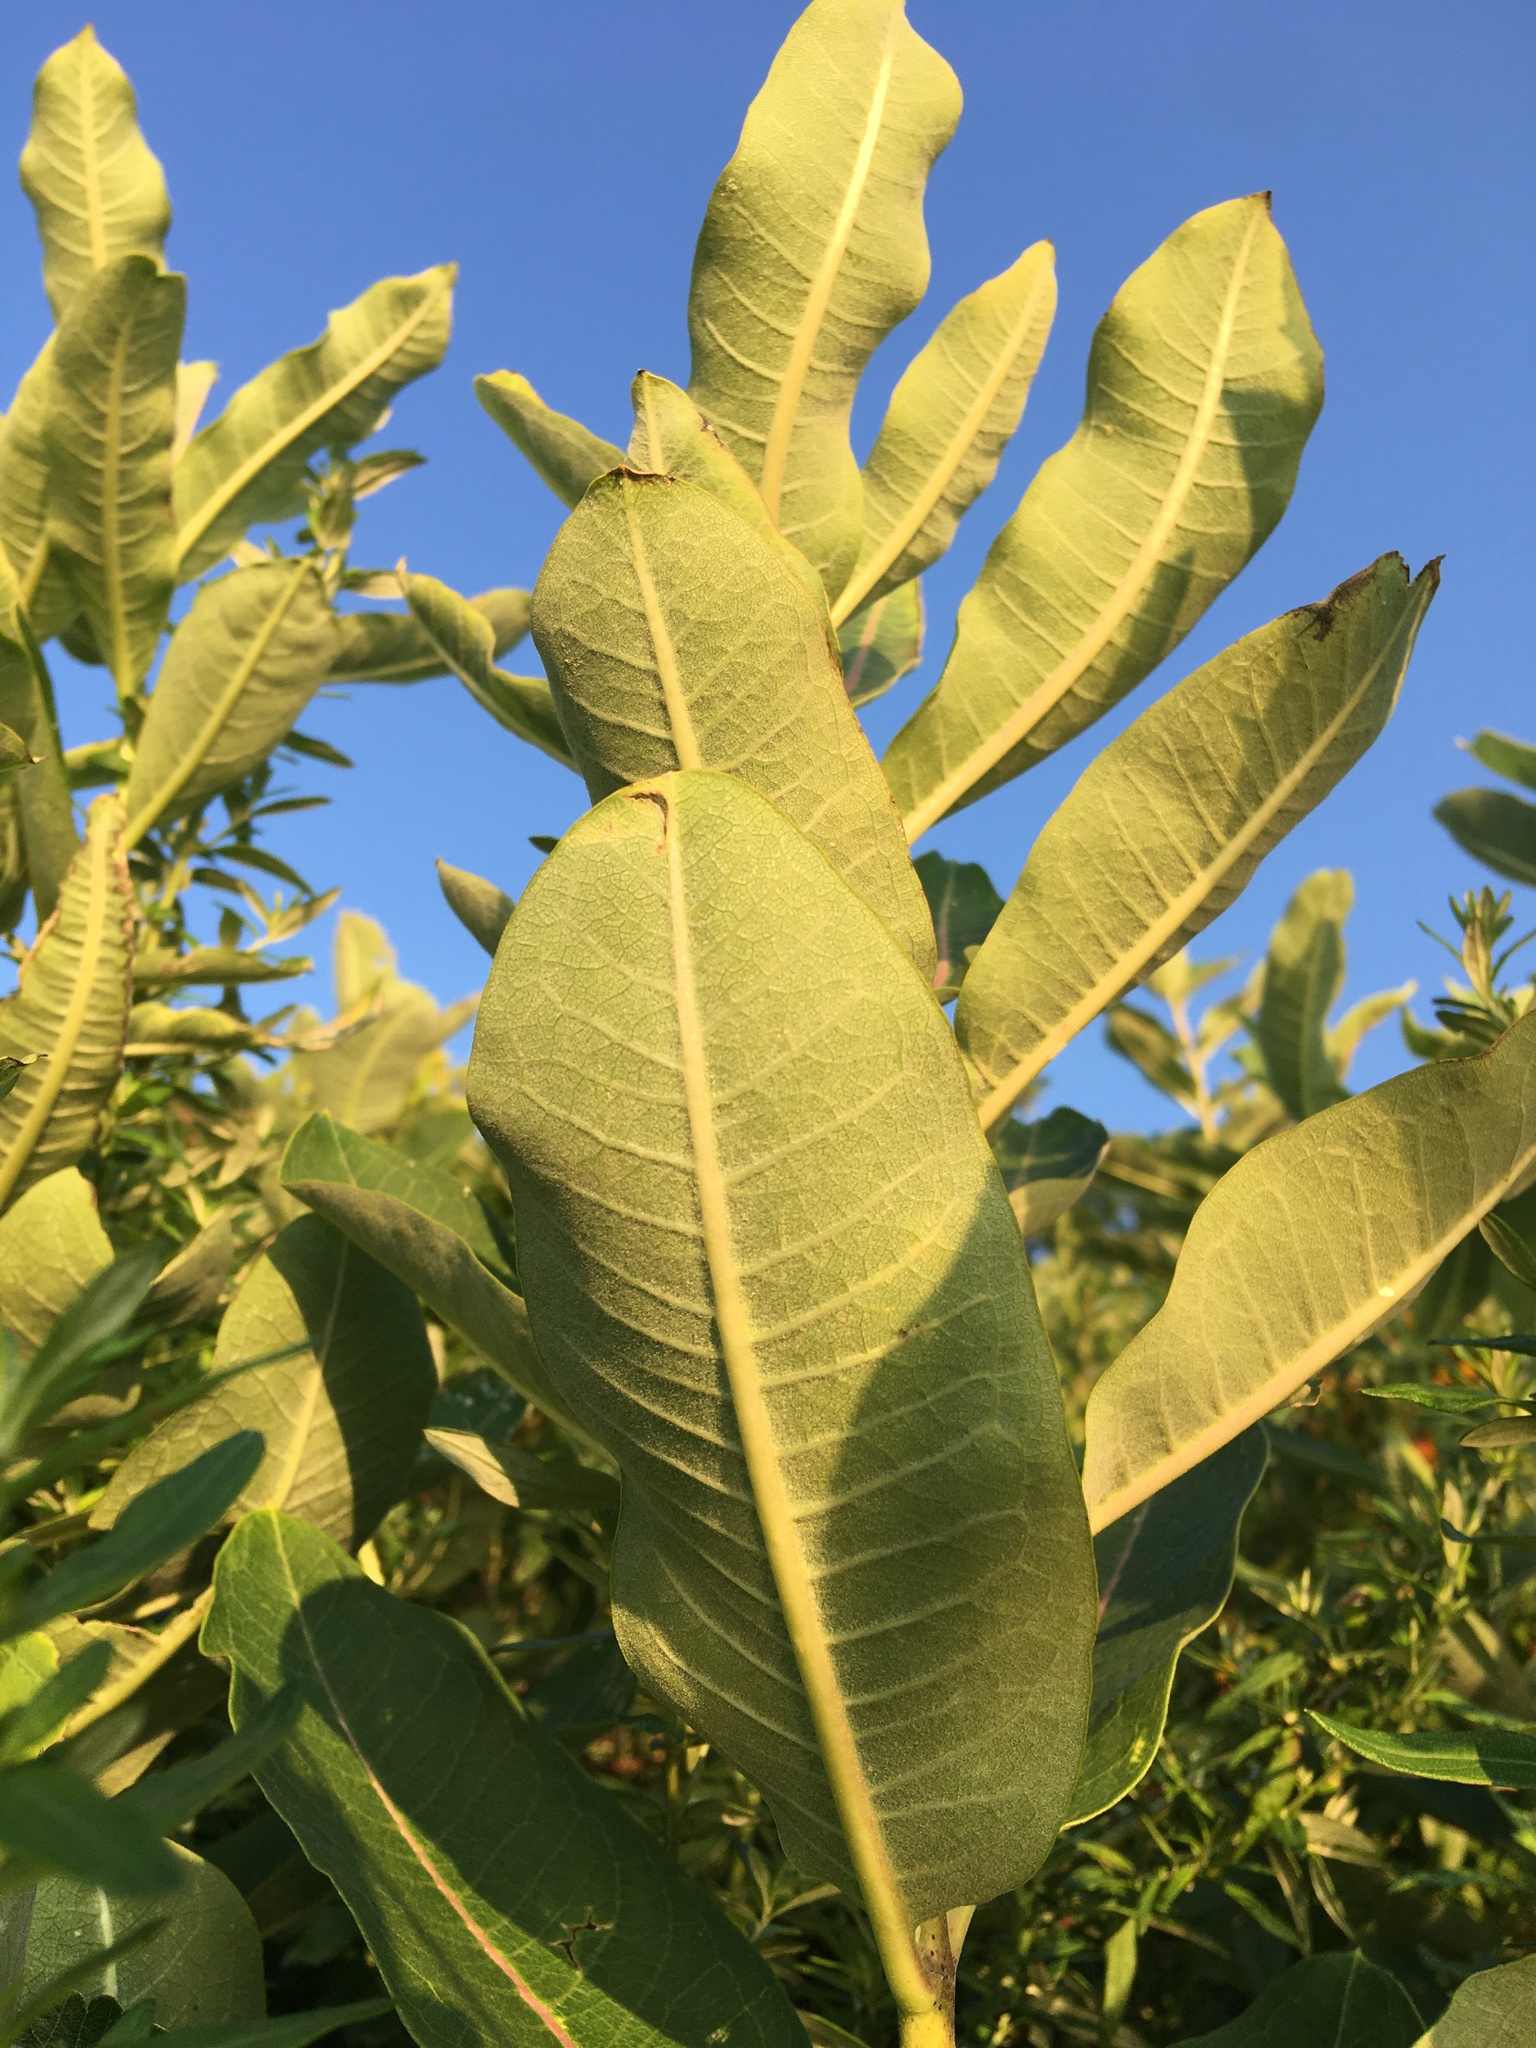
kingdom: Plantae
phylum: Tracheophyta
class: Magnoliopsida
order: Gentianales
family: Apocynaceae
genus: Asclepias
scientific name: Asclepias syriaca
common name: Common milkweed
